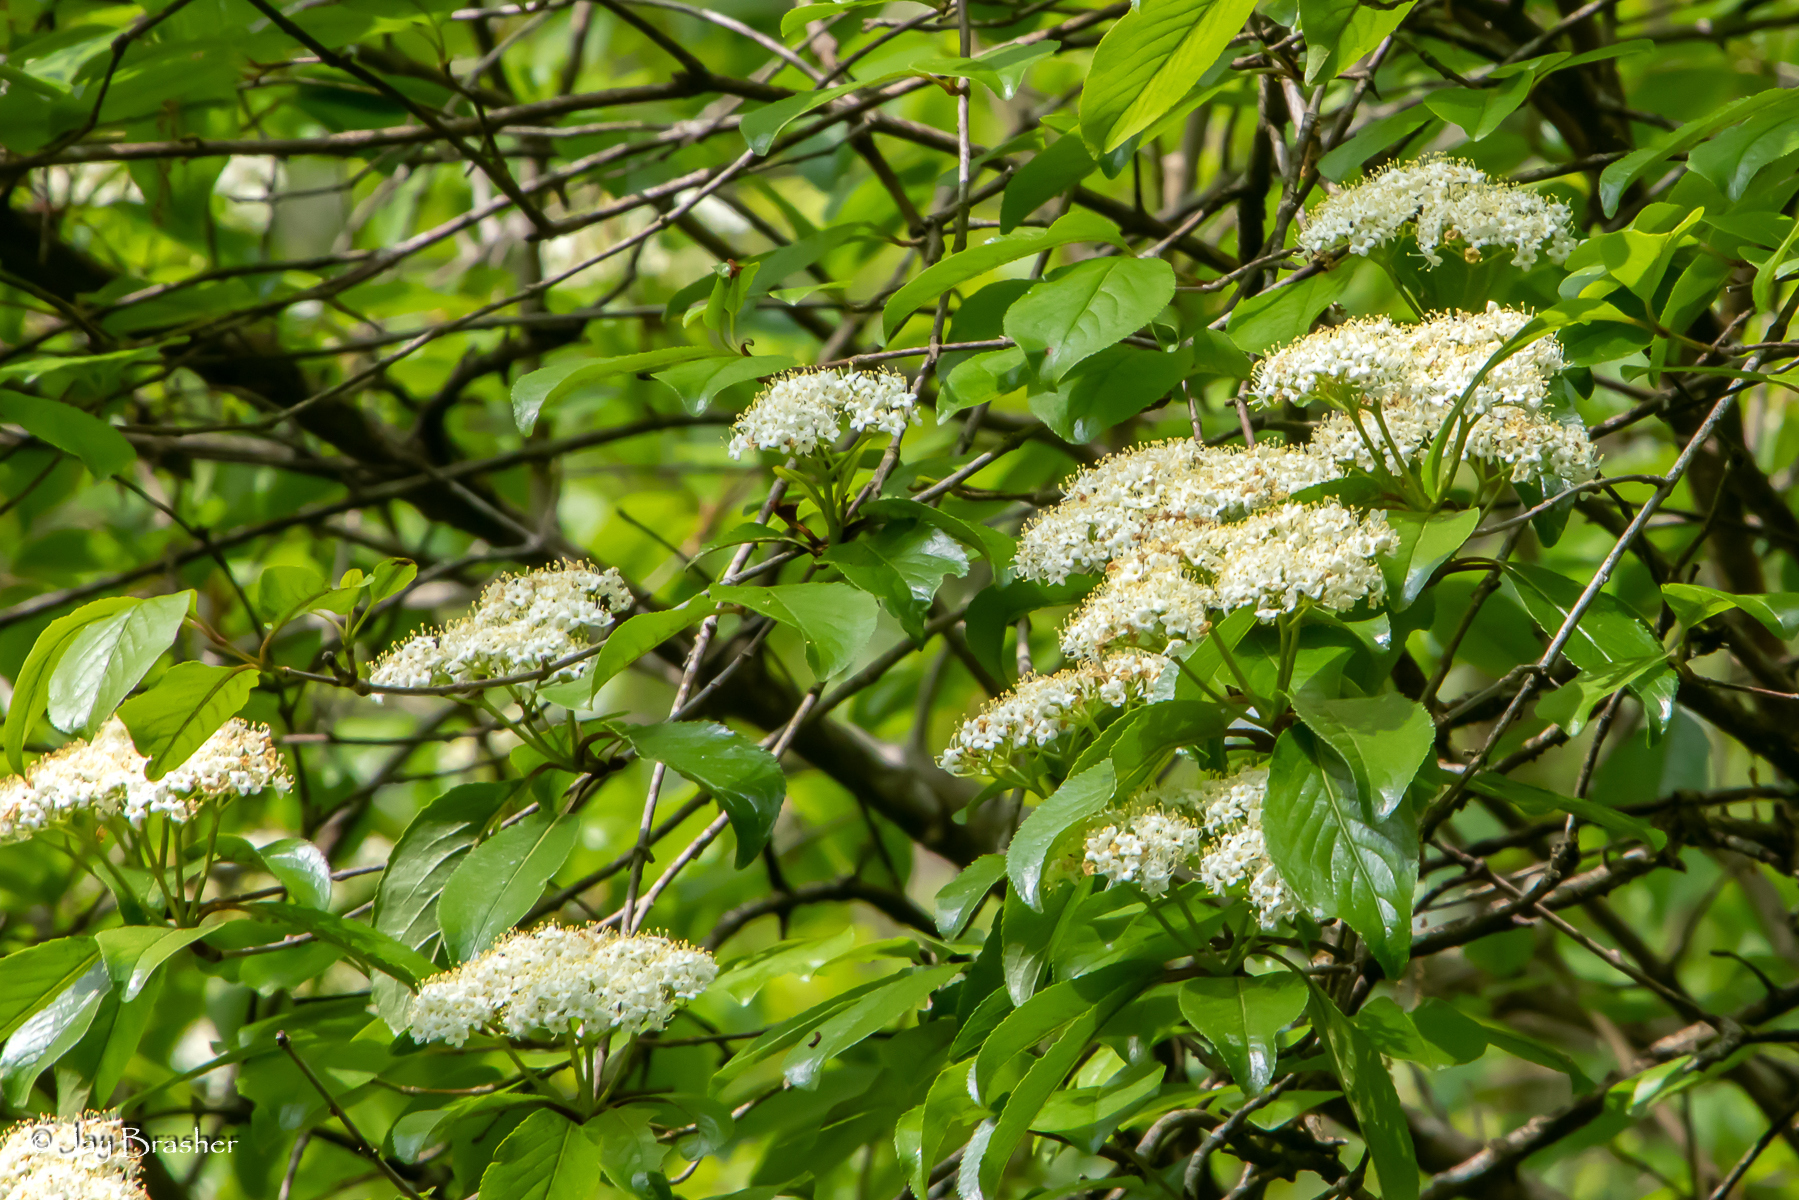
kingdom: Plantae
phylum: Tracheophyta
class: Magnoliopsida
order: Dipsacales
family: Viburnaceae
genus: Viburnum
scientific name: Viburnum rufidulum
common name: Blue haw
